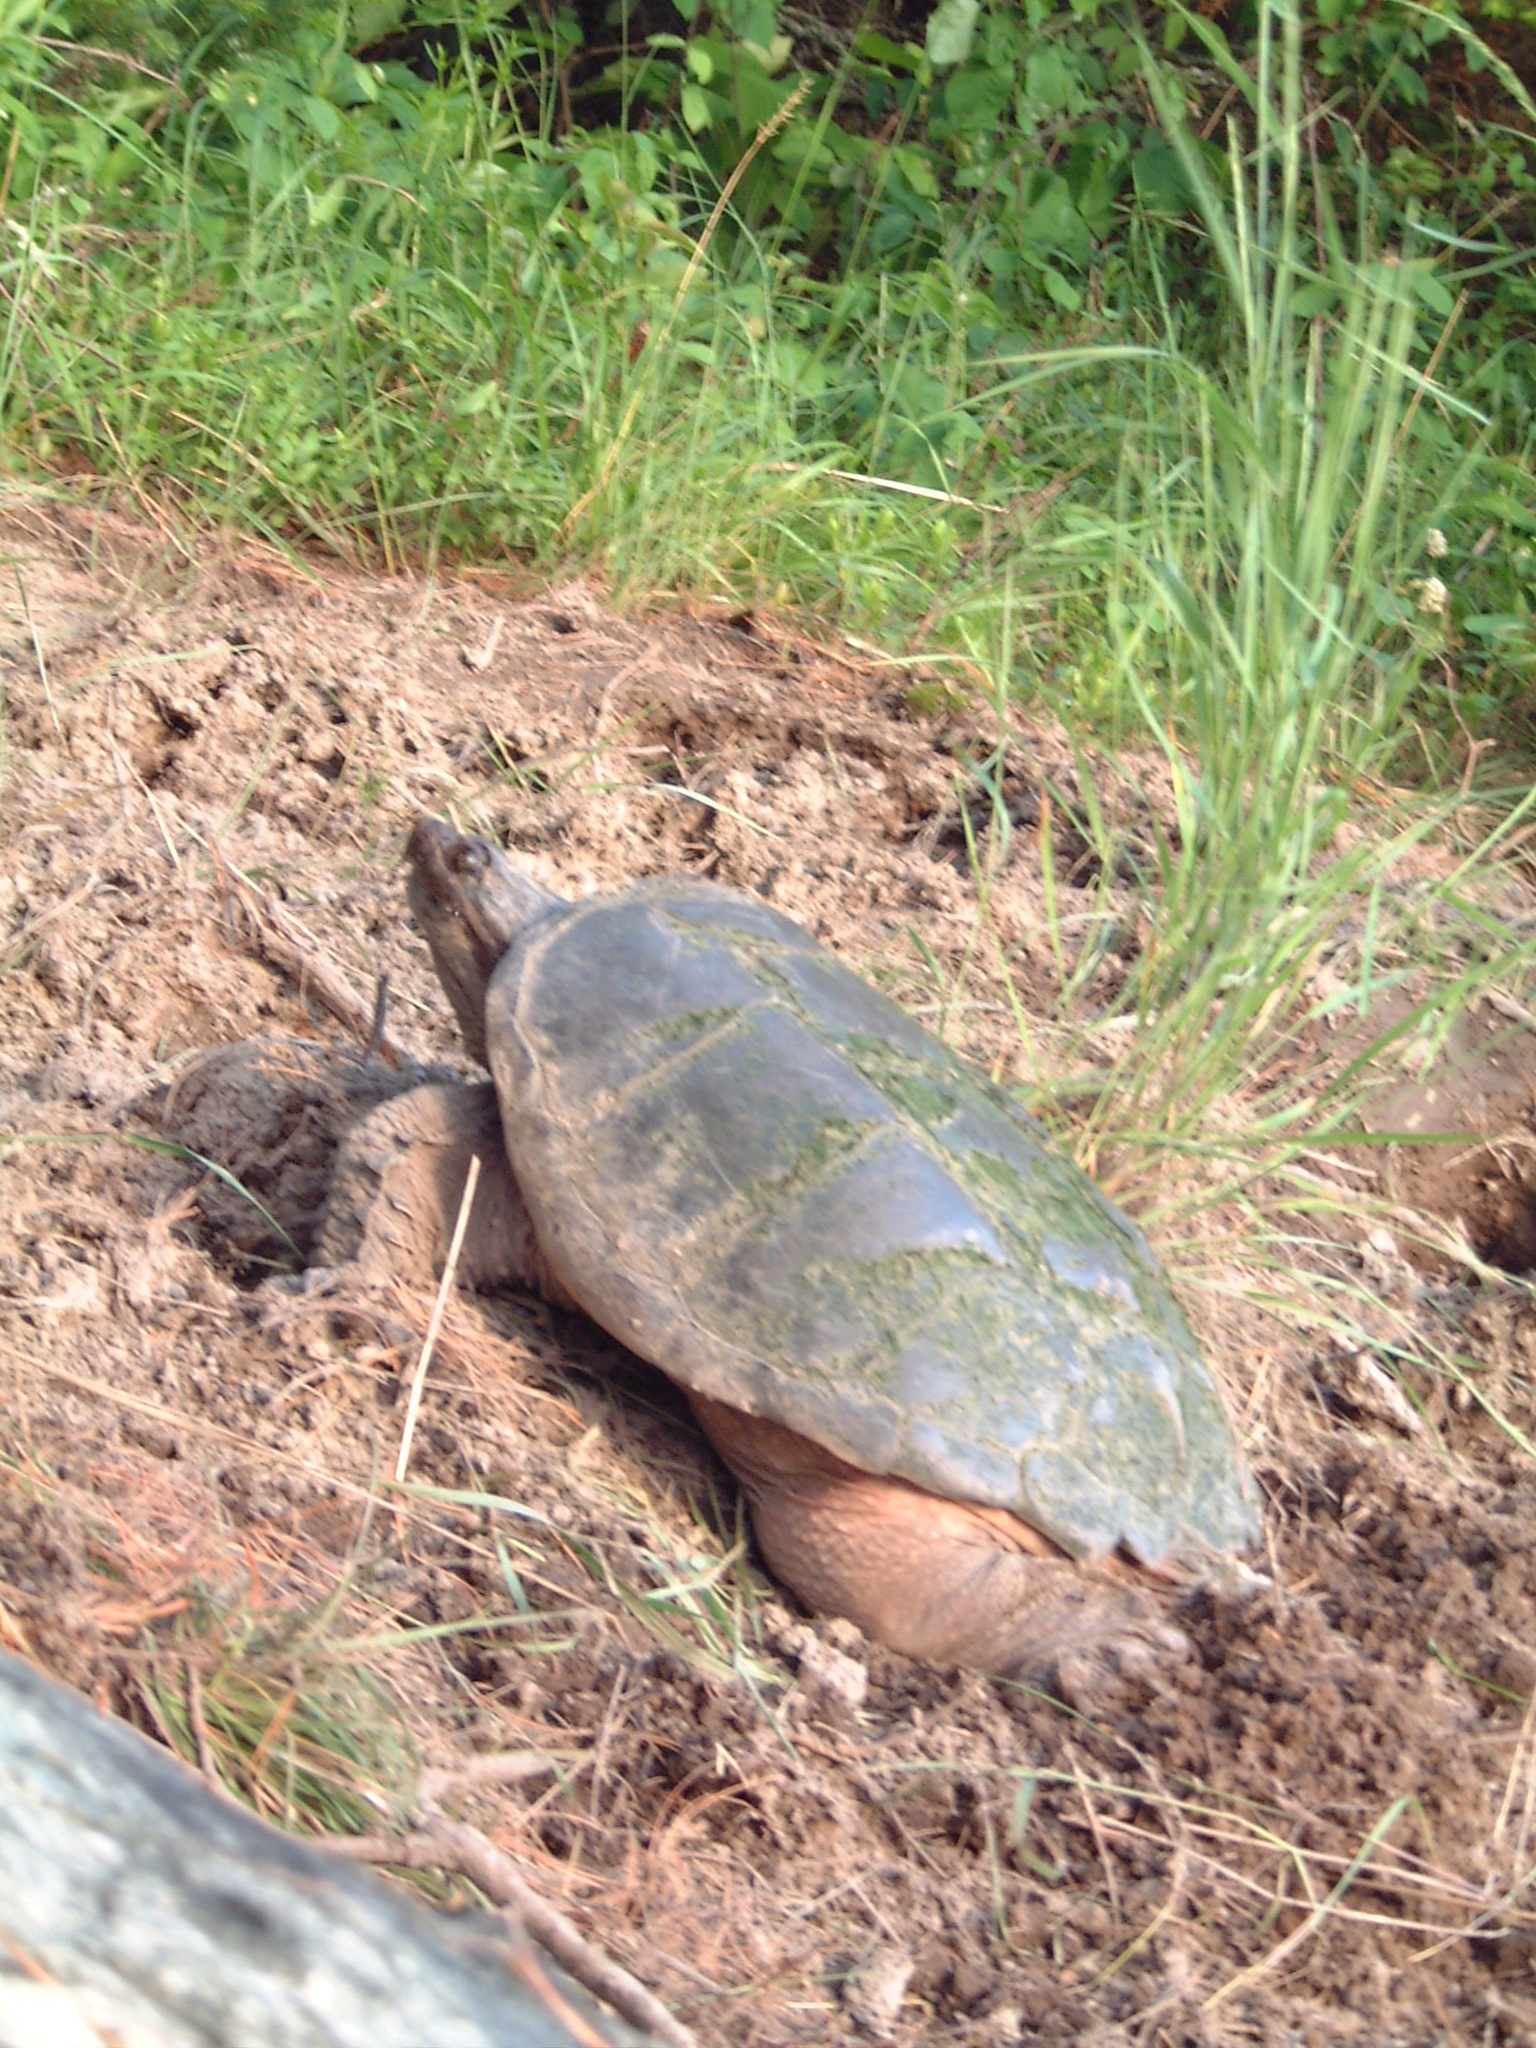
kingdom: Animalia
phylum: Chordata
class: Testudines
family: Chelydridae
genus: Chelydra
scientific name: Chelydra serpentina
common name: Common snapping turtle
